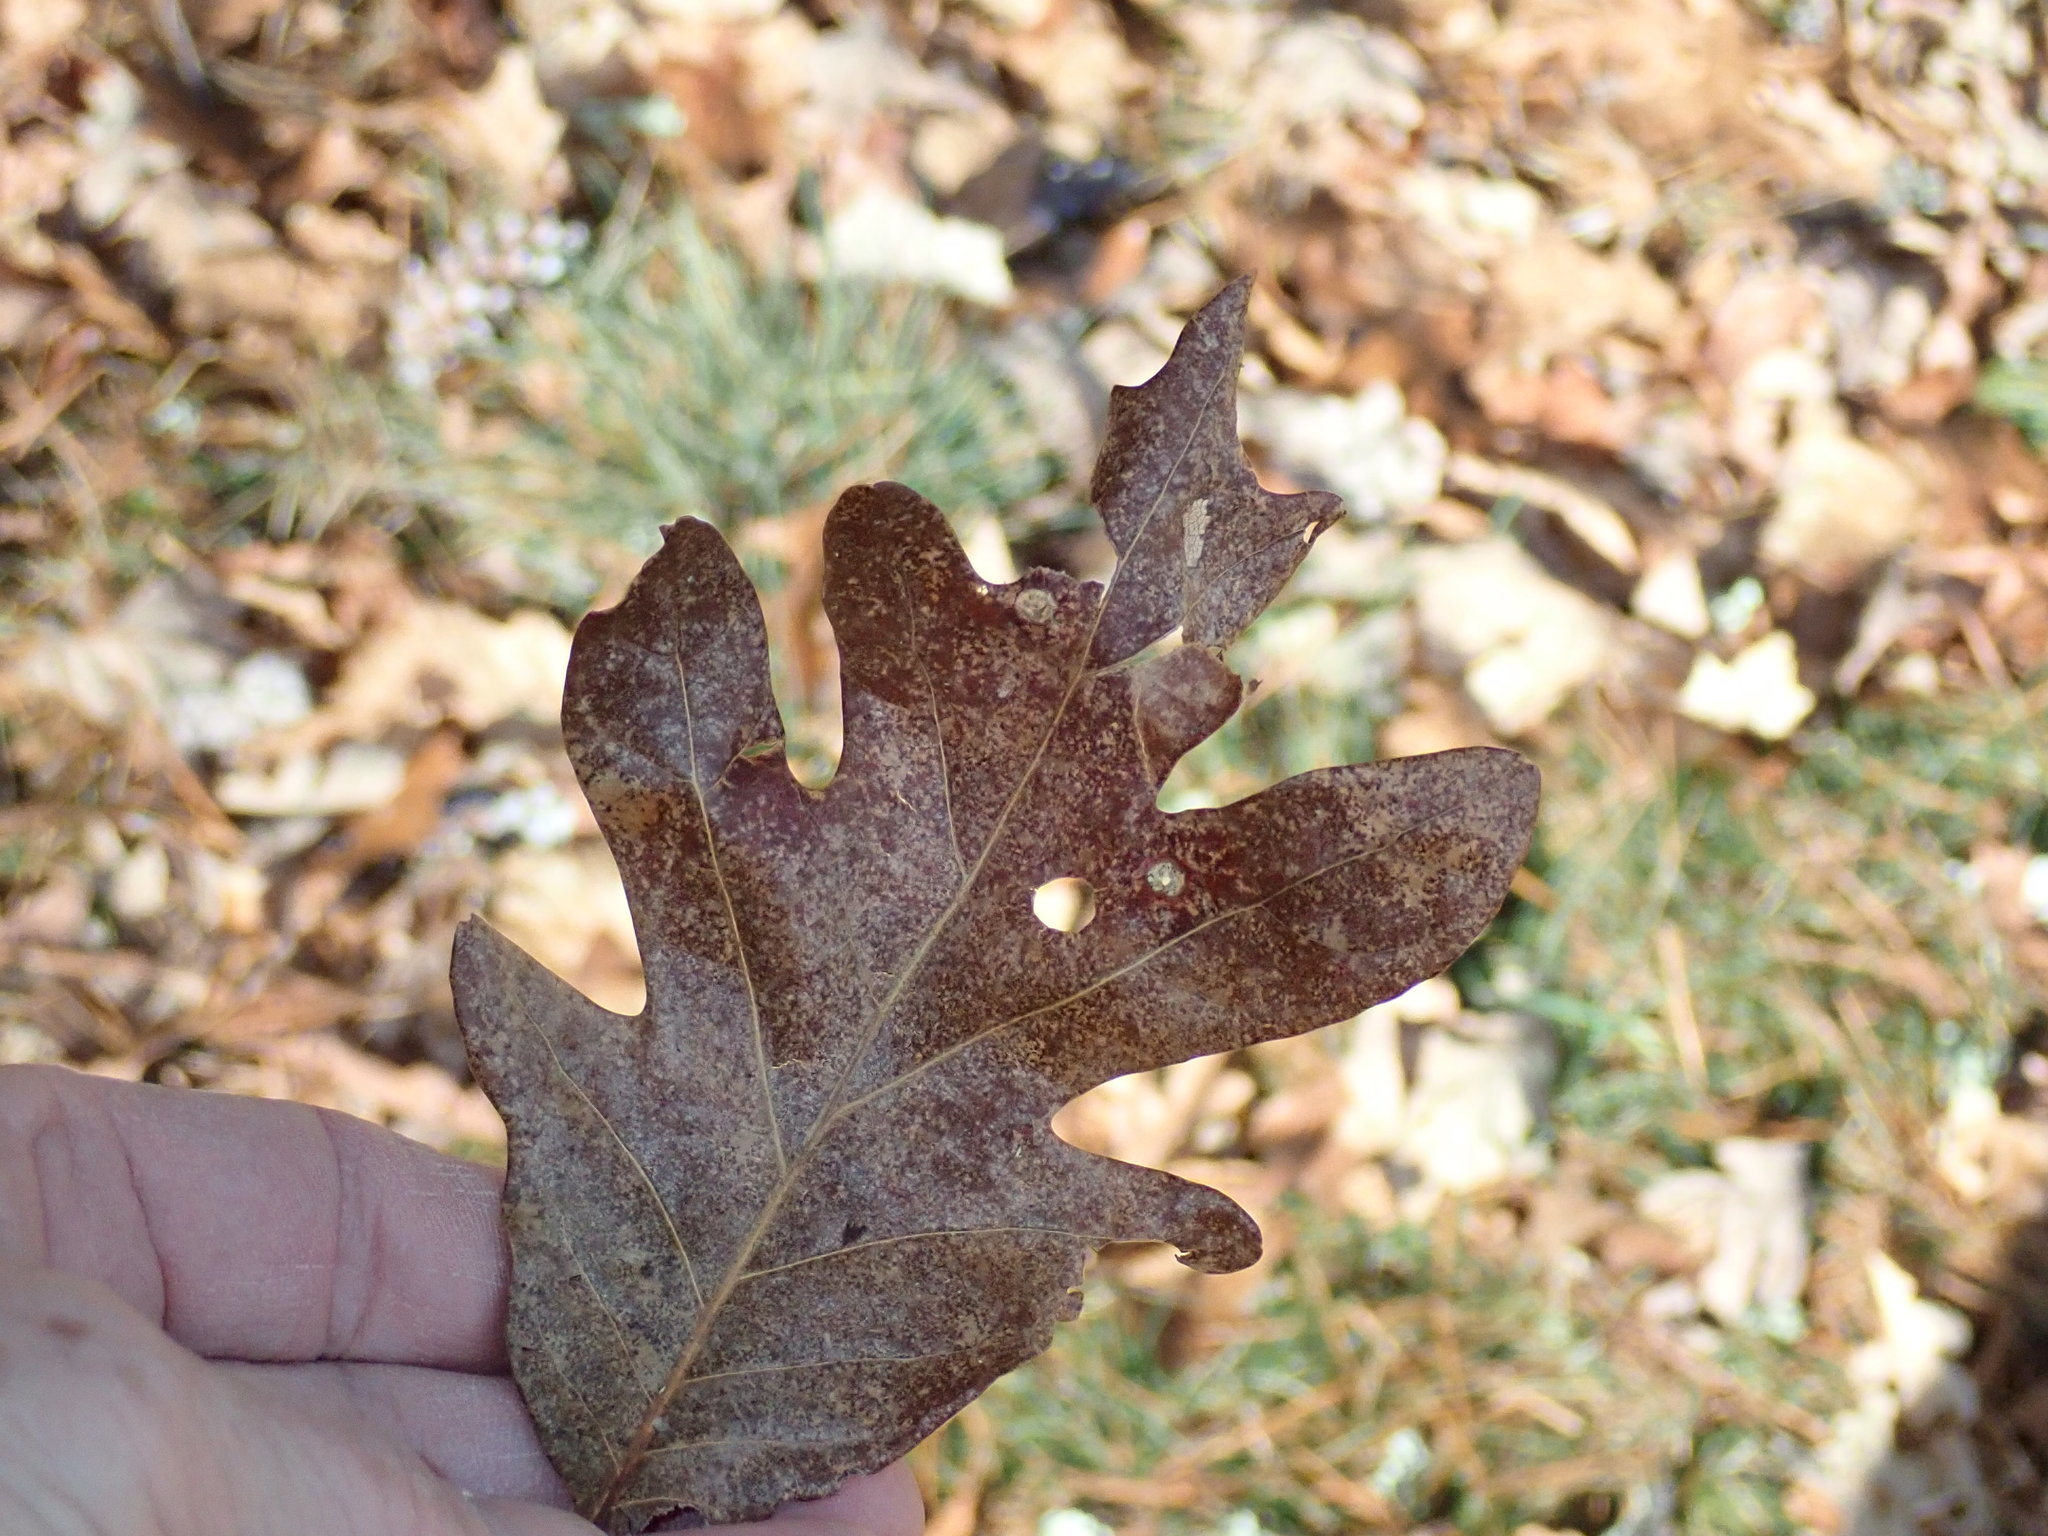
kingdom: Plantae
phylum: Tracheophyta
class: Magnoliopsida
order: Fagales
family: Fagaceae
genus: Quercus
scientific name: Quercus alba
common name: White oak
